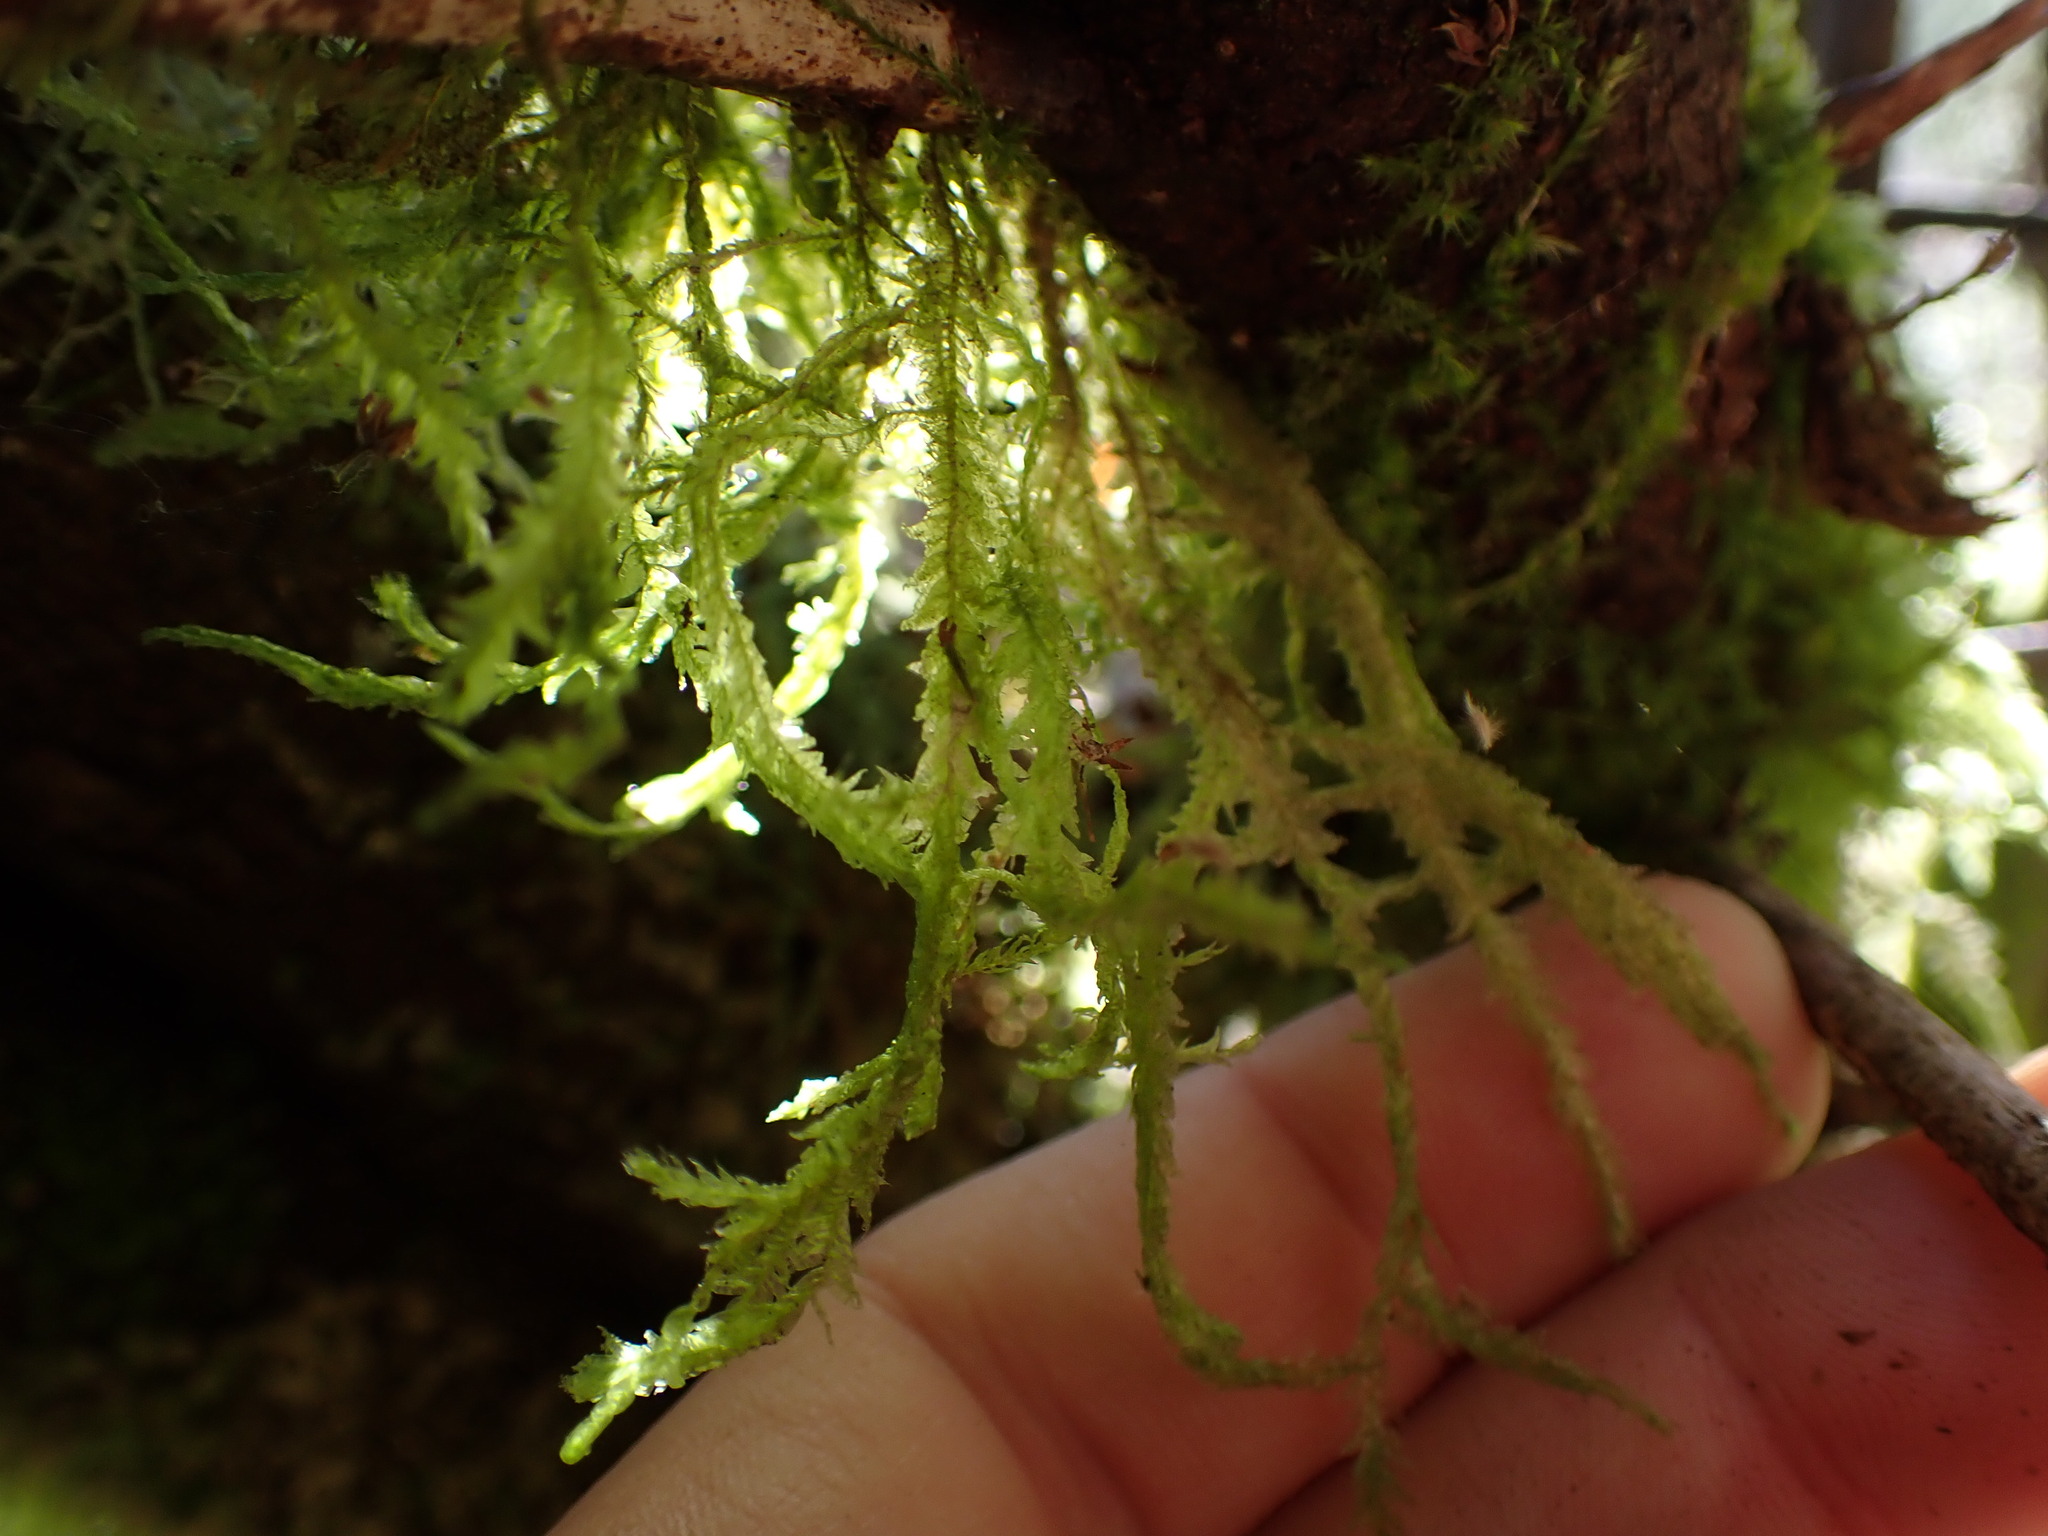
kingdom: Plantae
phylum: Bryophyta
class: Bryopsida
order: Hypnales
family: Neckeraceae
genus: Neckera
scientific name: Neckera douglasii
